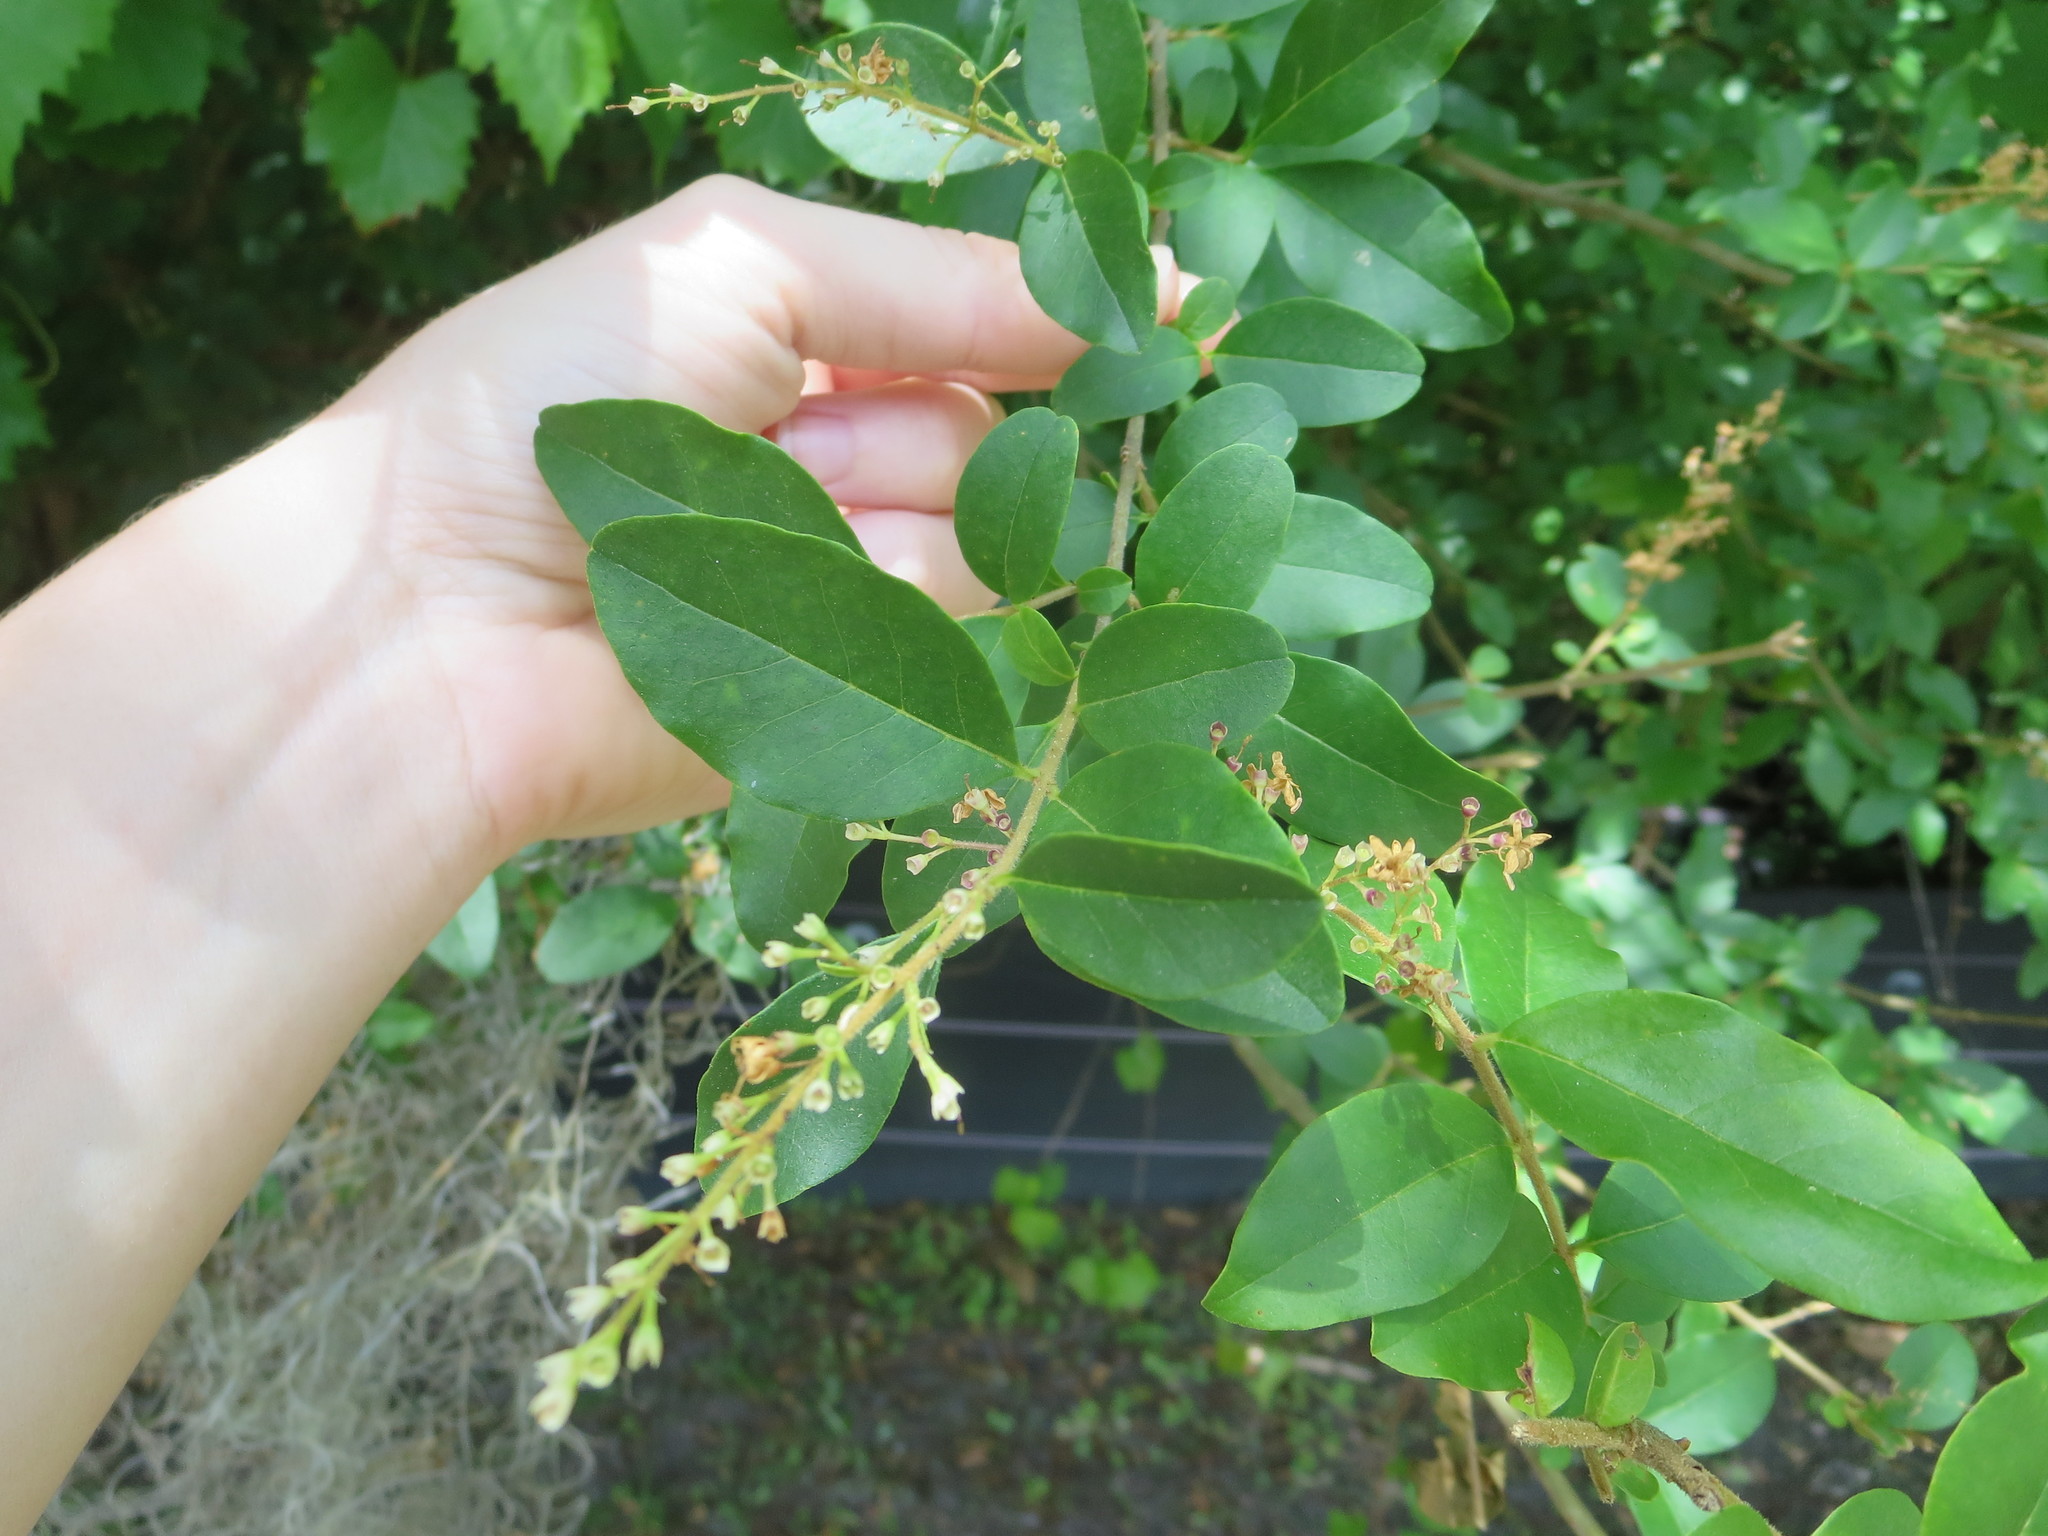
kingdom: Plantae
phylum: Tracheophyta
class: Magnoliopsida
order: Lamiales
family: Oleaceae
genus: Ligustrum
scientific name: Ligustrum sinense
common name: Chinese privet
